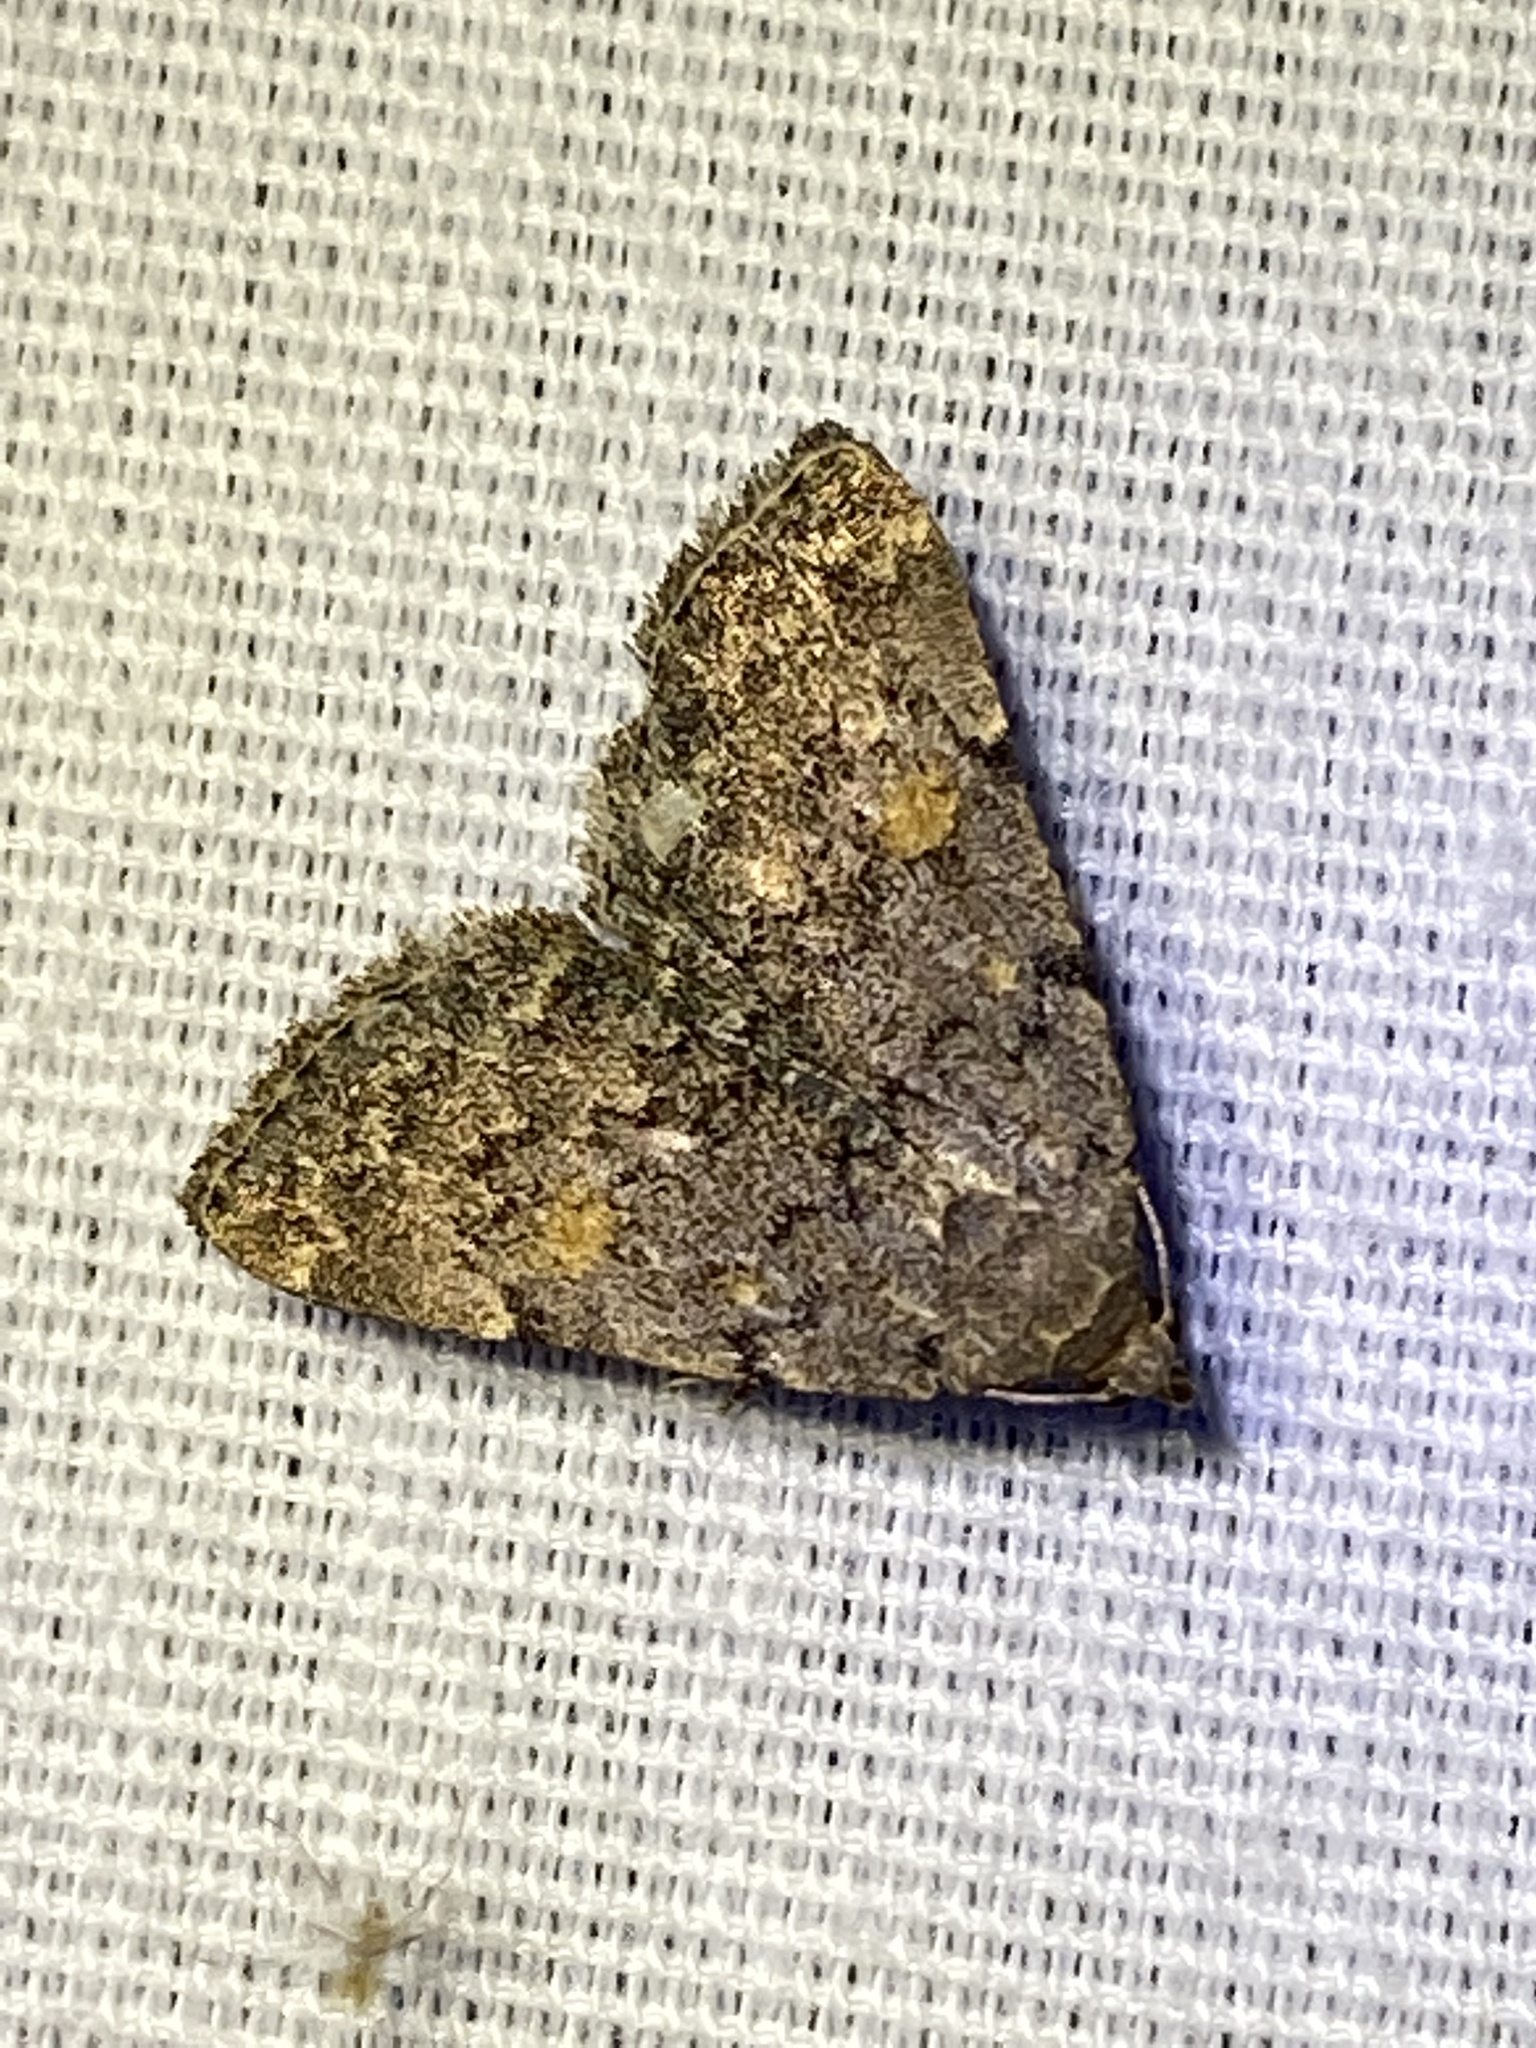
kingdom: Animalia
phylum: Arthropoda
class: Insecta
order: Lepidoptera
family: Erebidae
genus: Idia
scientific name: Idia aemula
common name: Common idia moth
